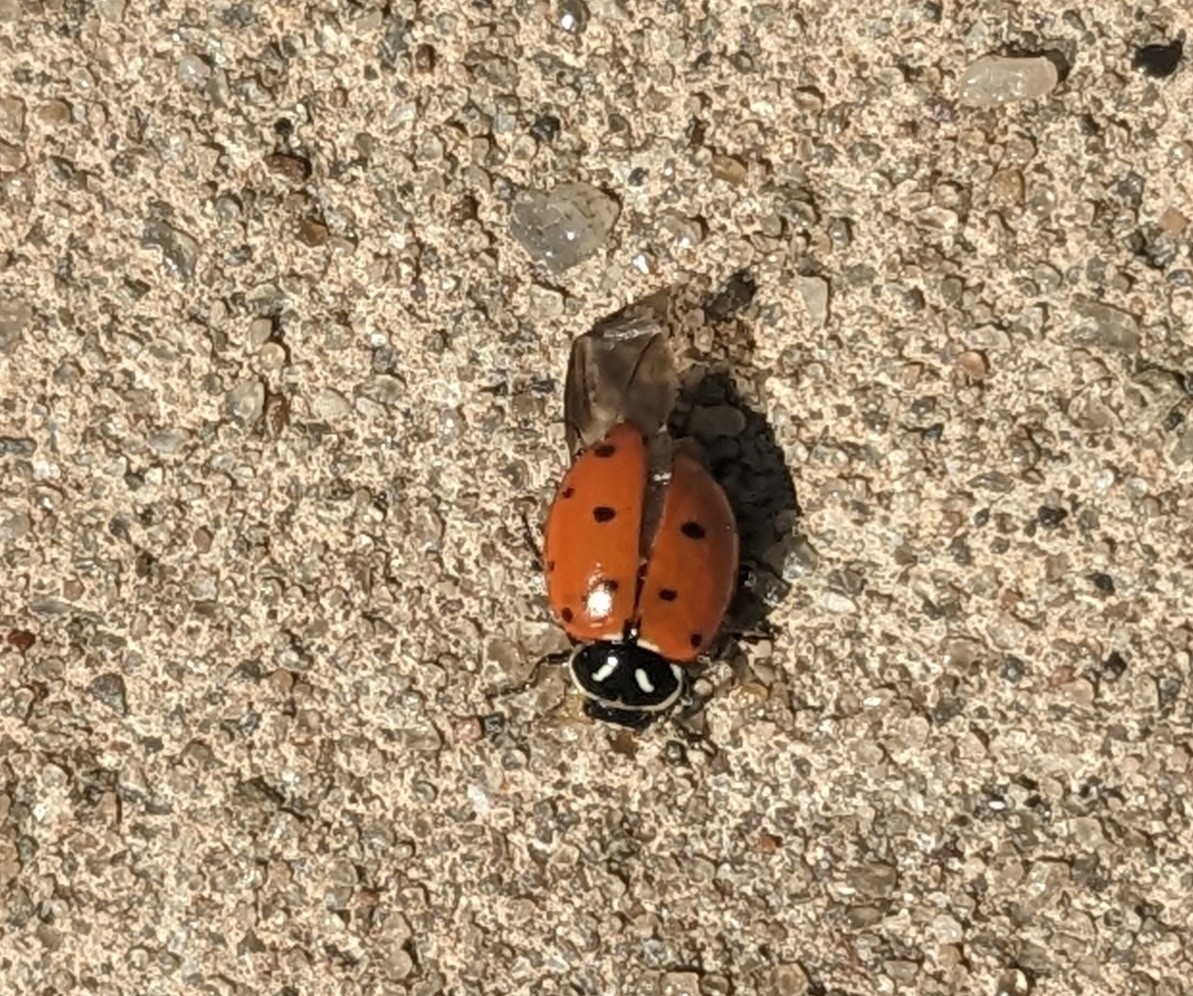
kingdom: Animalia
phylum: Arthropoda
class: Insecta
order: Coleoptera
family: Coccinellidae
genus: Hippodamia
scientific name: Hippodamia convergens
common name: Convergent lady beetle
